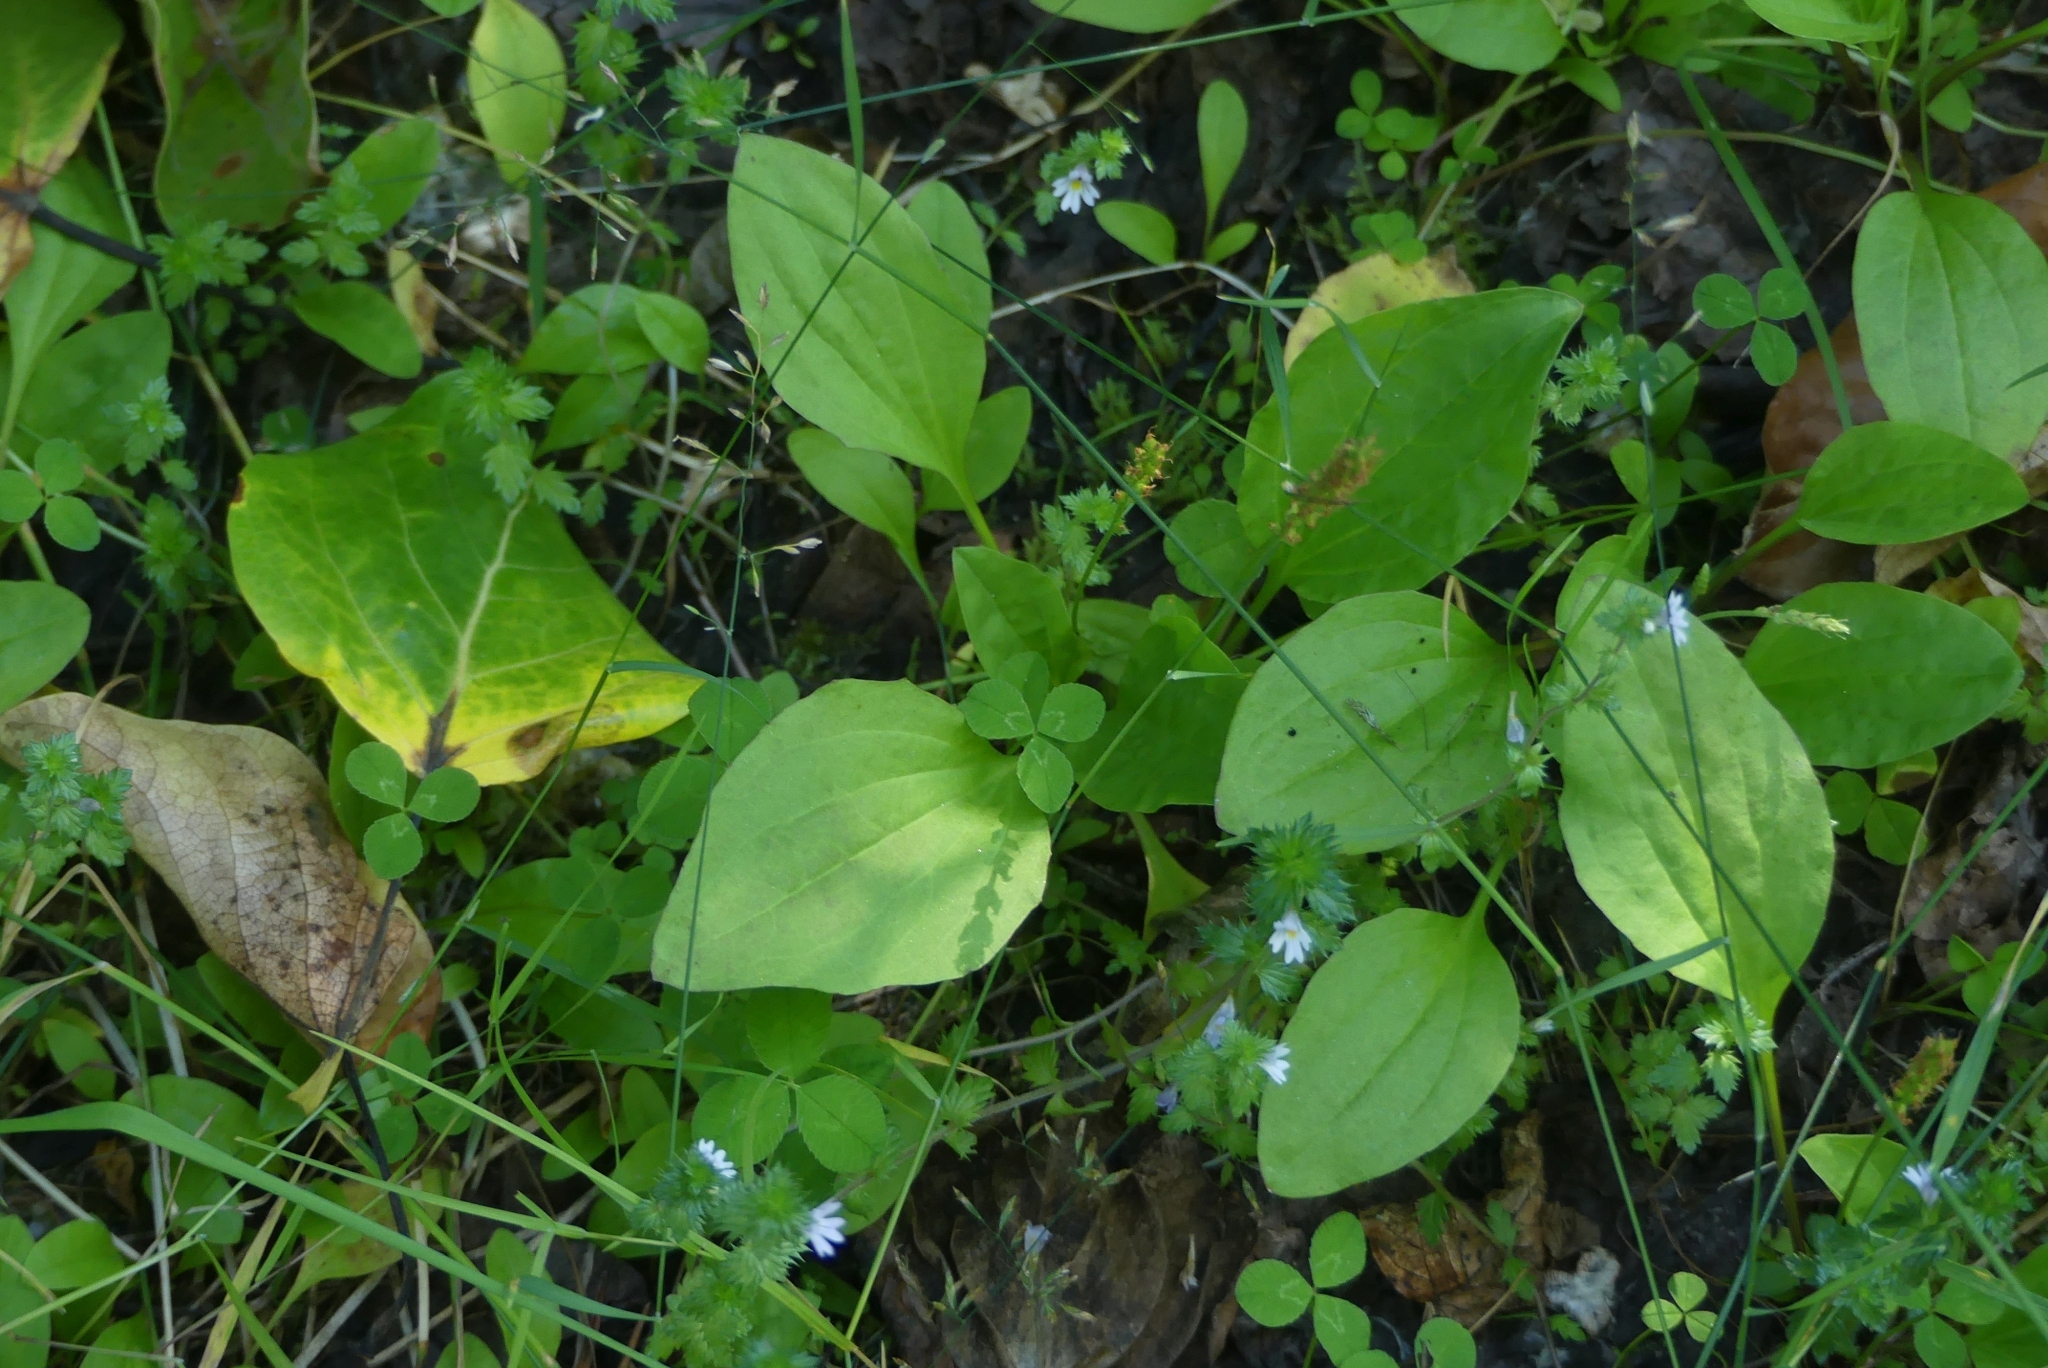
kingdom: Plantae
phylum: Tracheophyta
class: Magnoliopsida
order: Lamiales
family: Plantaginaceae
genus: Plantago
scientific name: Plantago major
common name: Common plantain
